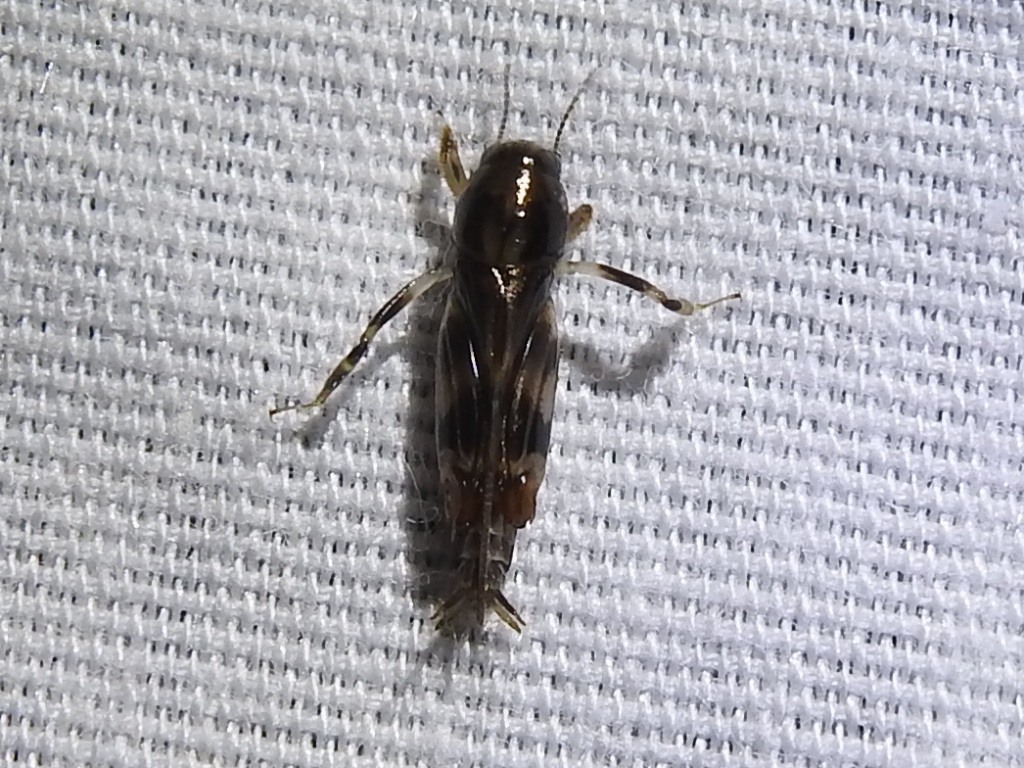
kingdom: Animalia
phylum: Arthropoda
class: Insecta
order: Orthoptera
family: Tridactylidae
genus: Neotridactylus
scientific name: Neotridactylus apicialis
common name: Larger pygmy locust
